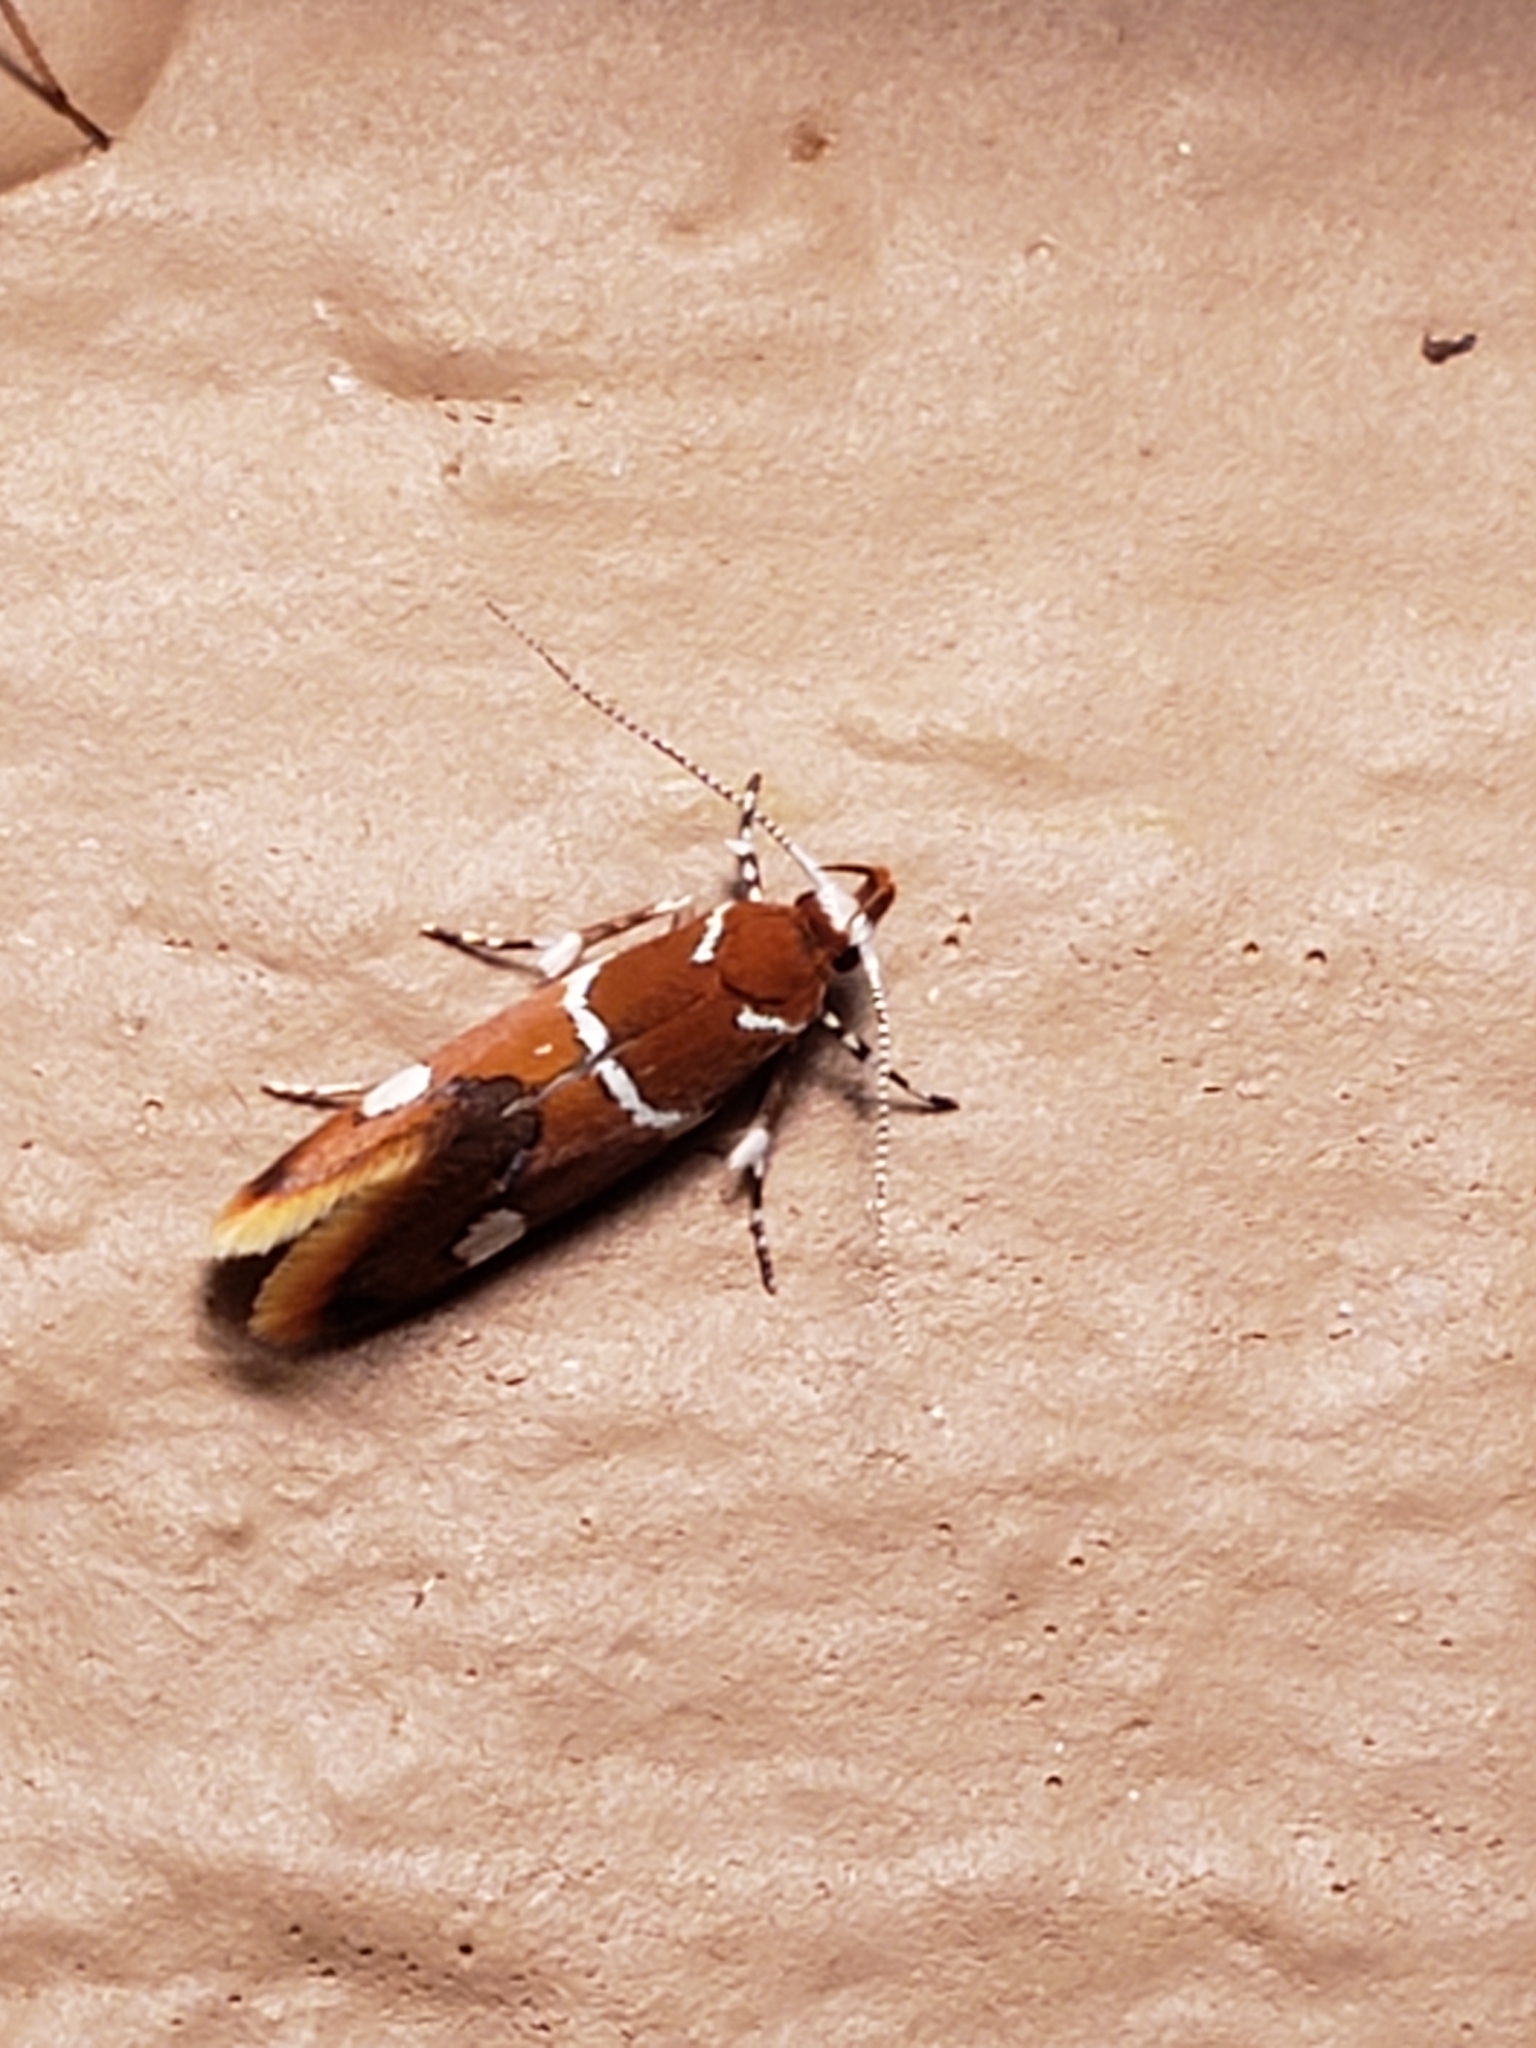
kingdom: Animalia
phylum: Arthropoda
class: Insecta
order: Lepidoptera
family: Oecophoridae
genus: Promalactis
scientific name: Promalactis suzukiella
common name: Moth
